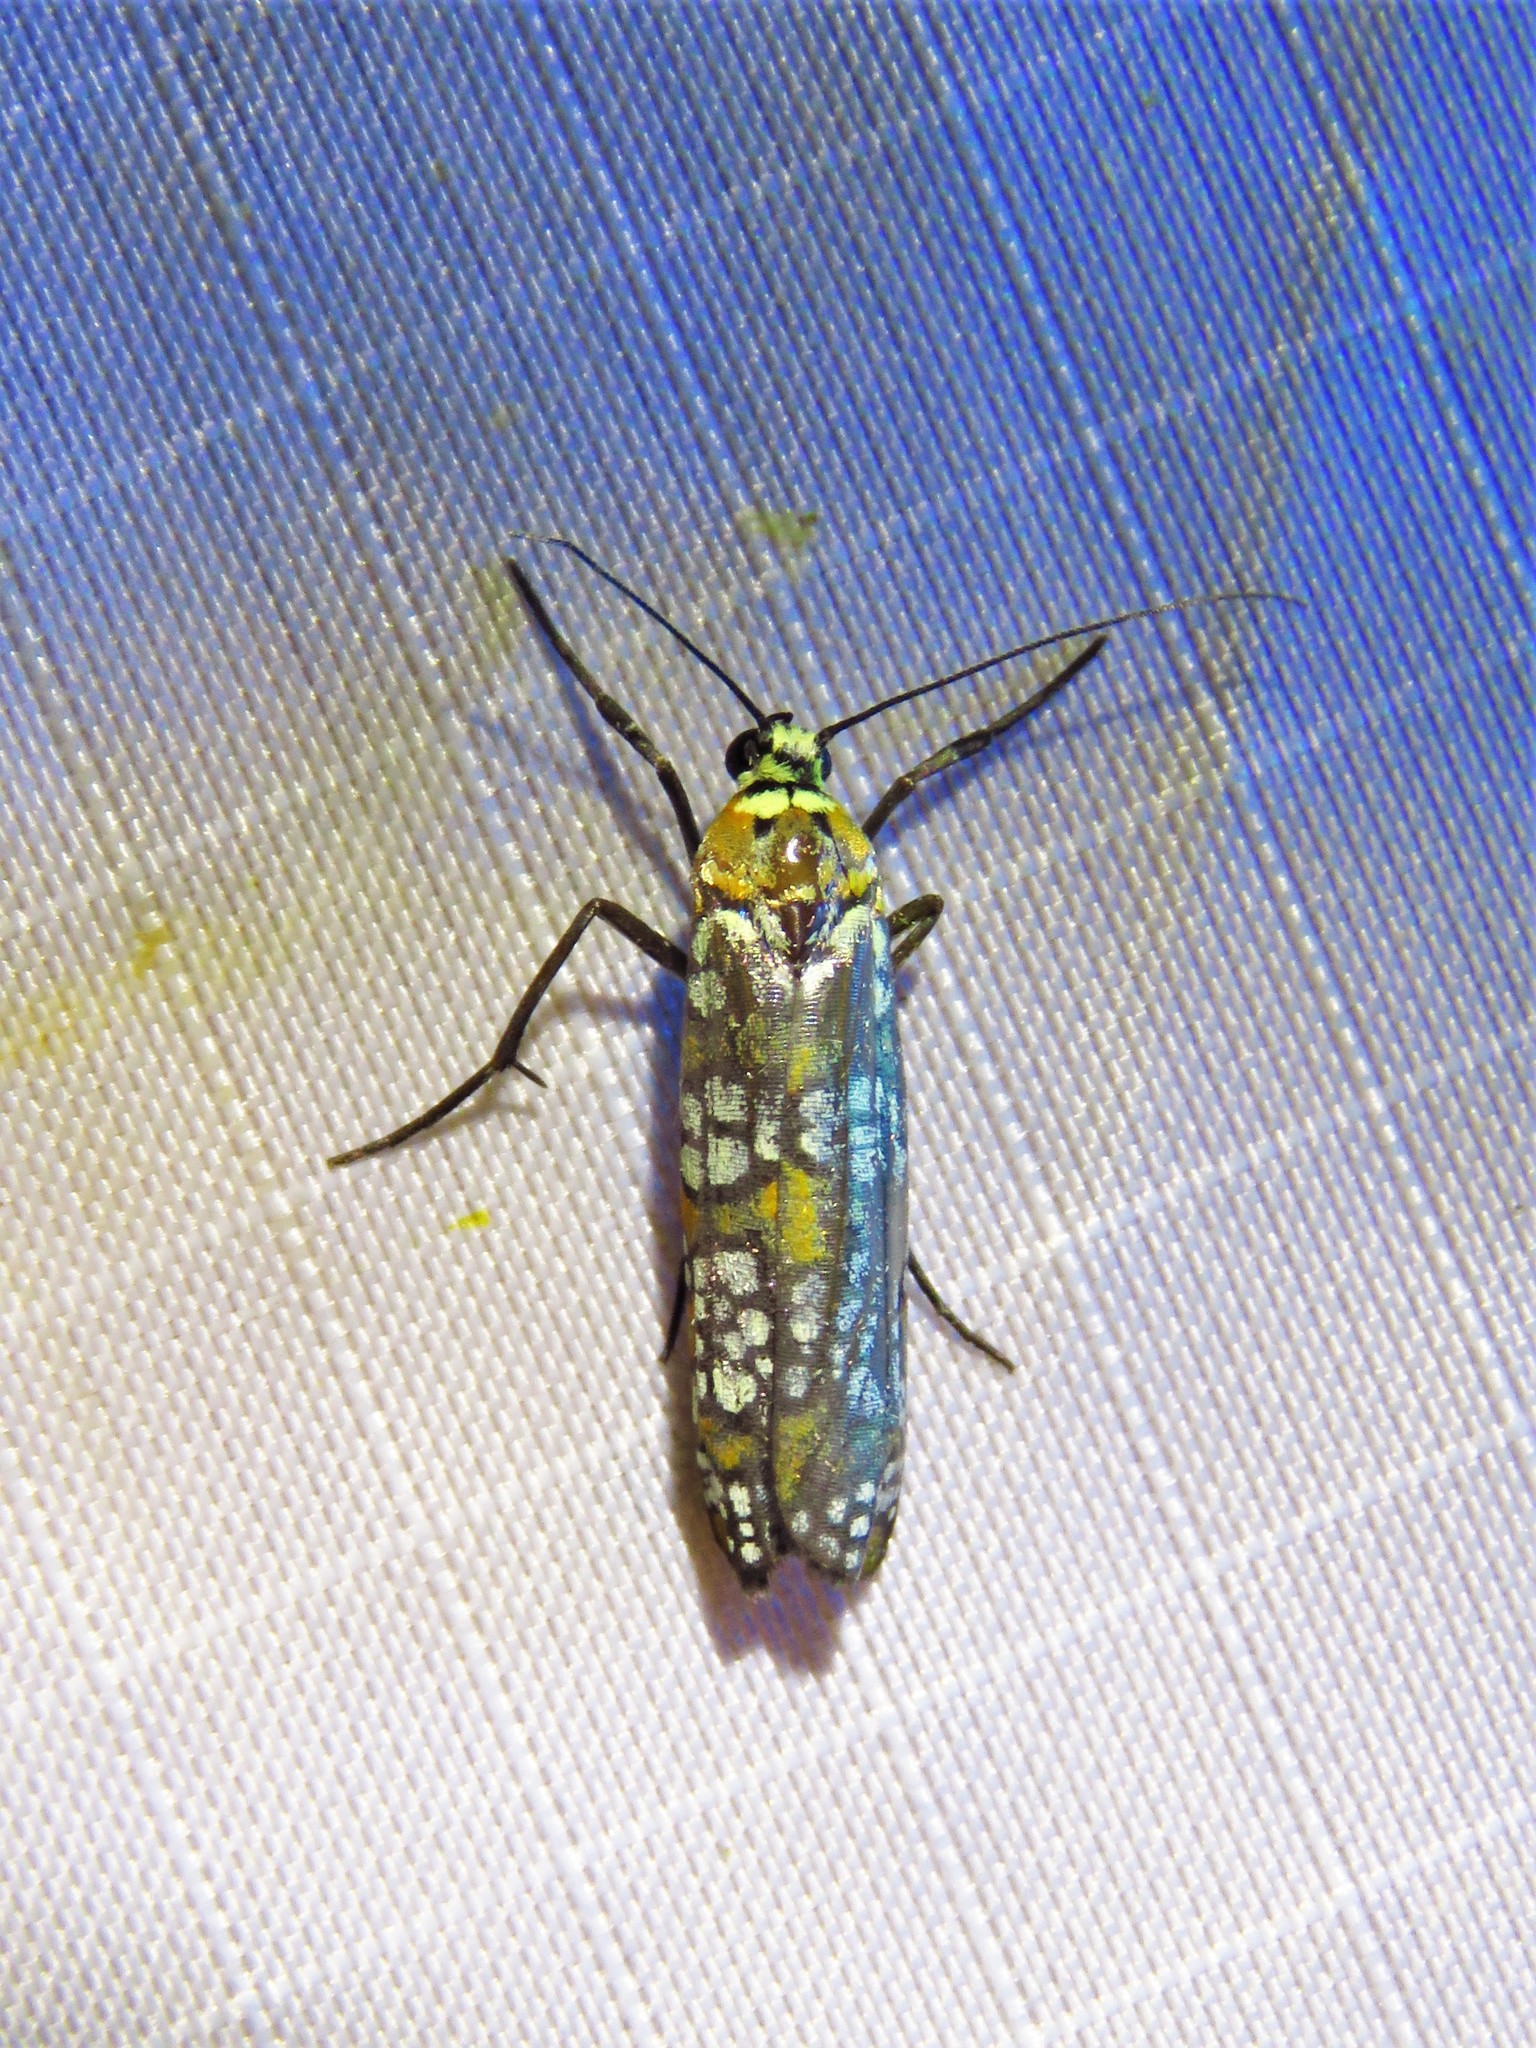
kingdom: Animalia
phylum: Arthropoda
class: Insecta
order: Lepidoptera
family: Attevidae
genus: Atteva
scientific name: Atteva punctella
